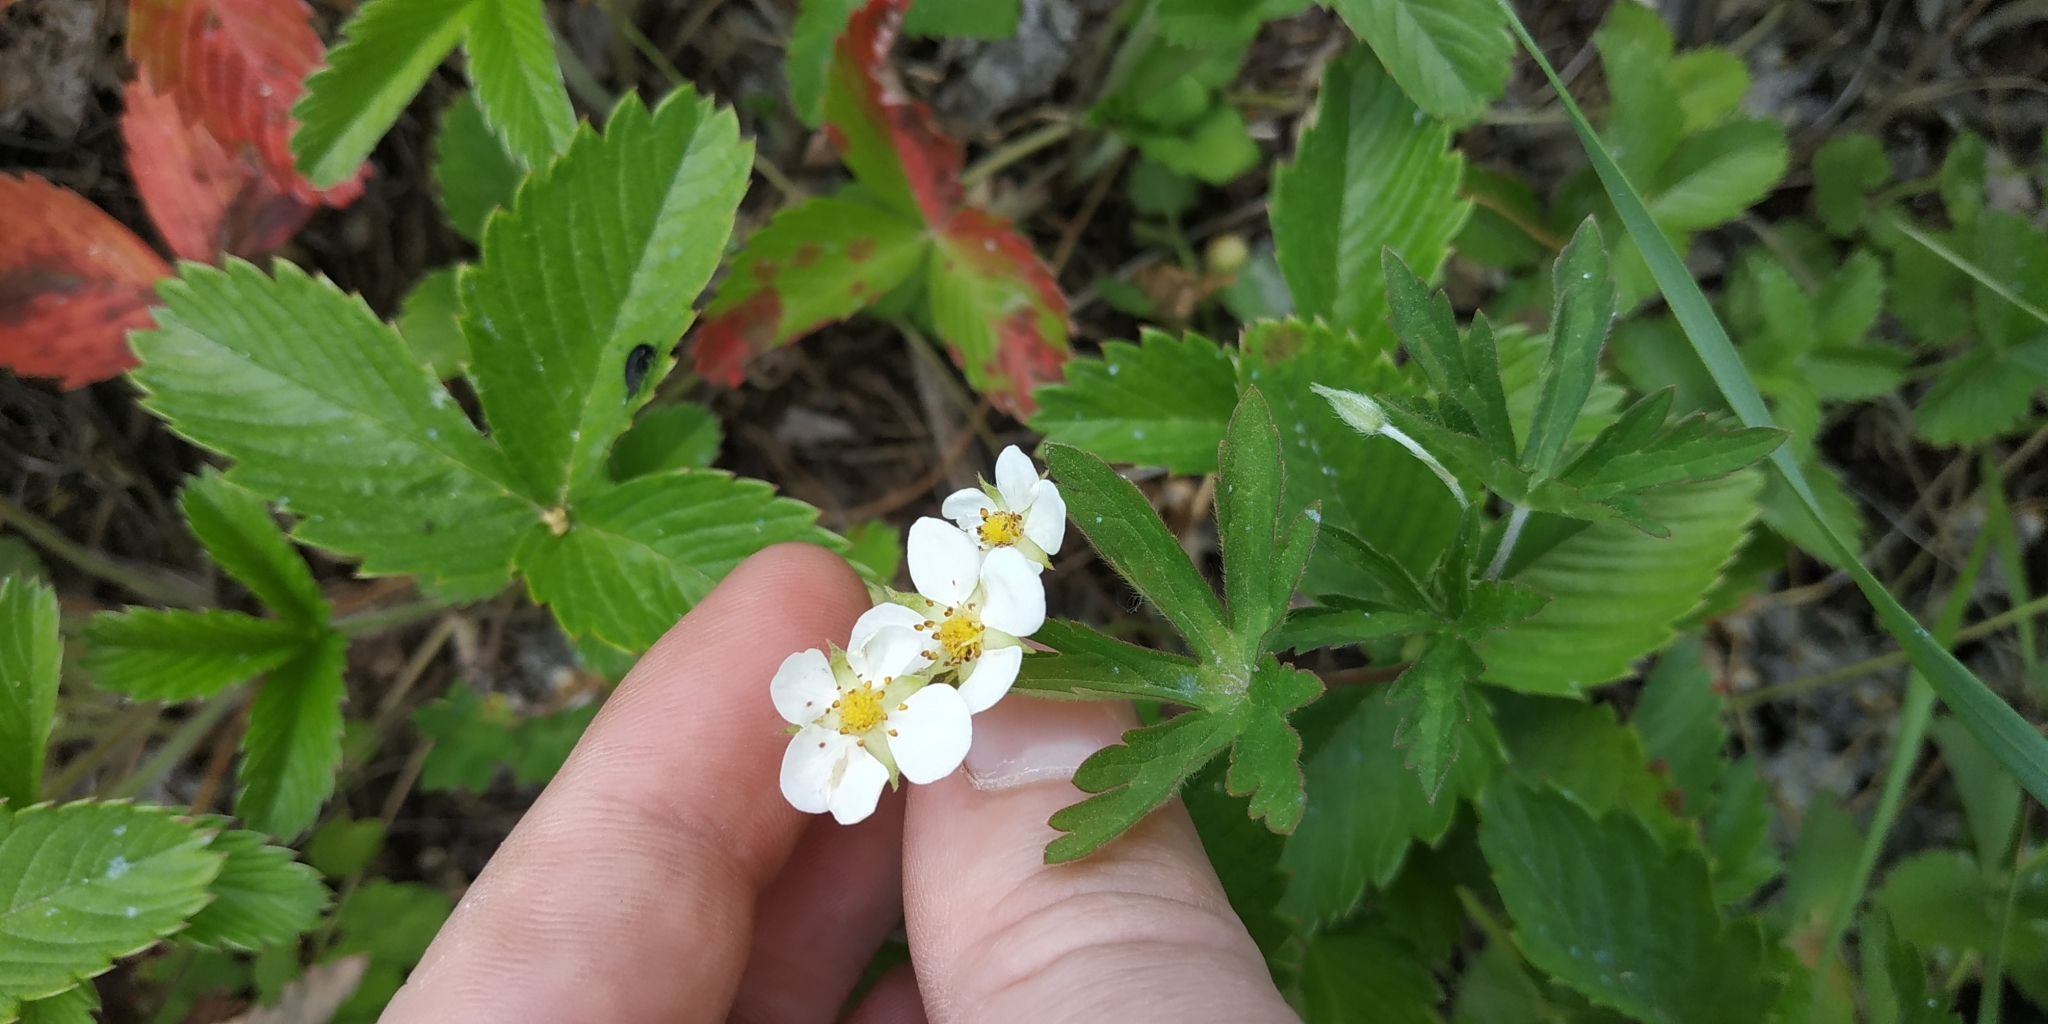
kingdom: Plantae
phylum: Tracheophyta
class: Magnoliopsida
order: Rosales
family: Rosaceae
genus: Fragaria
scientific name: Fragaria viridis
